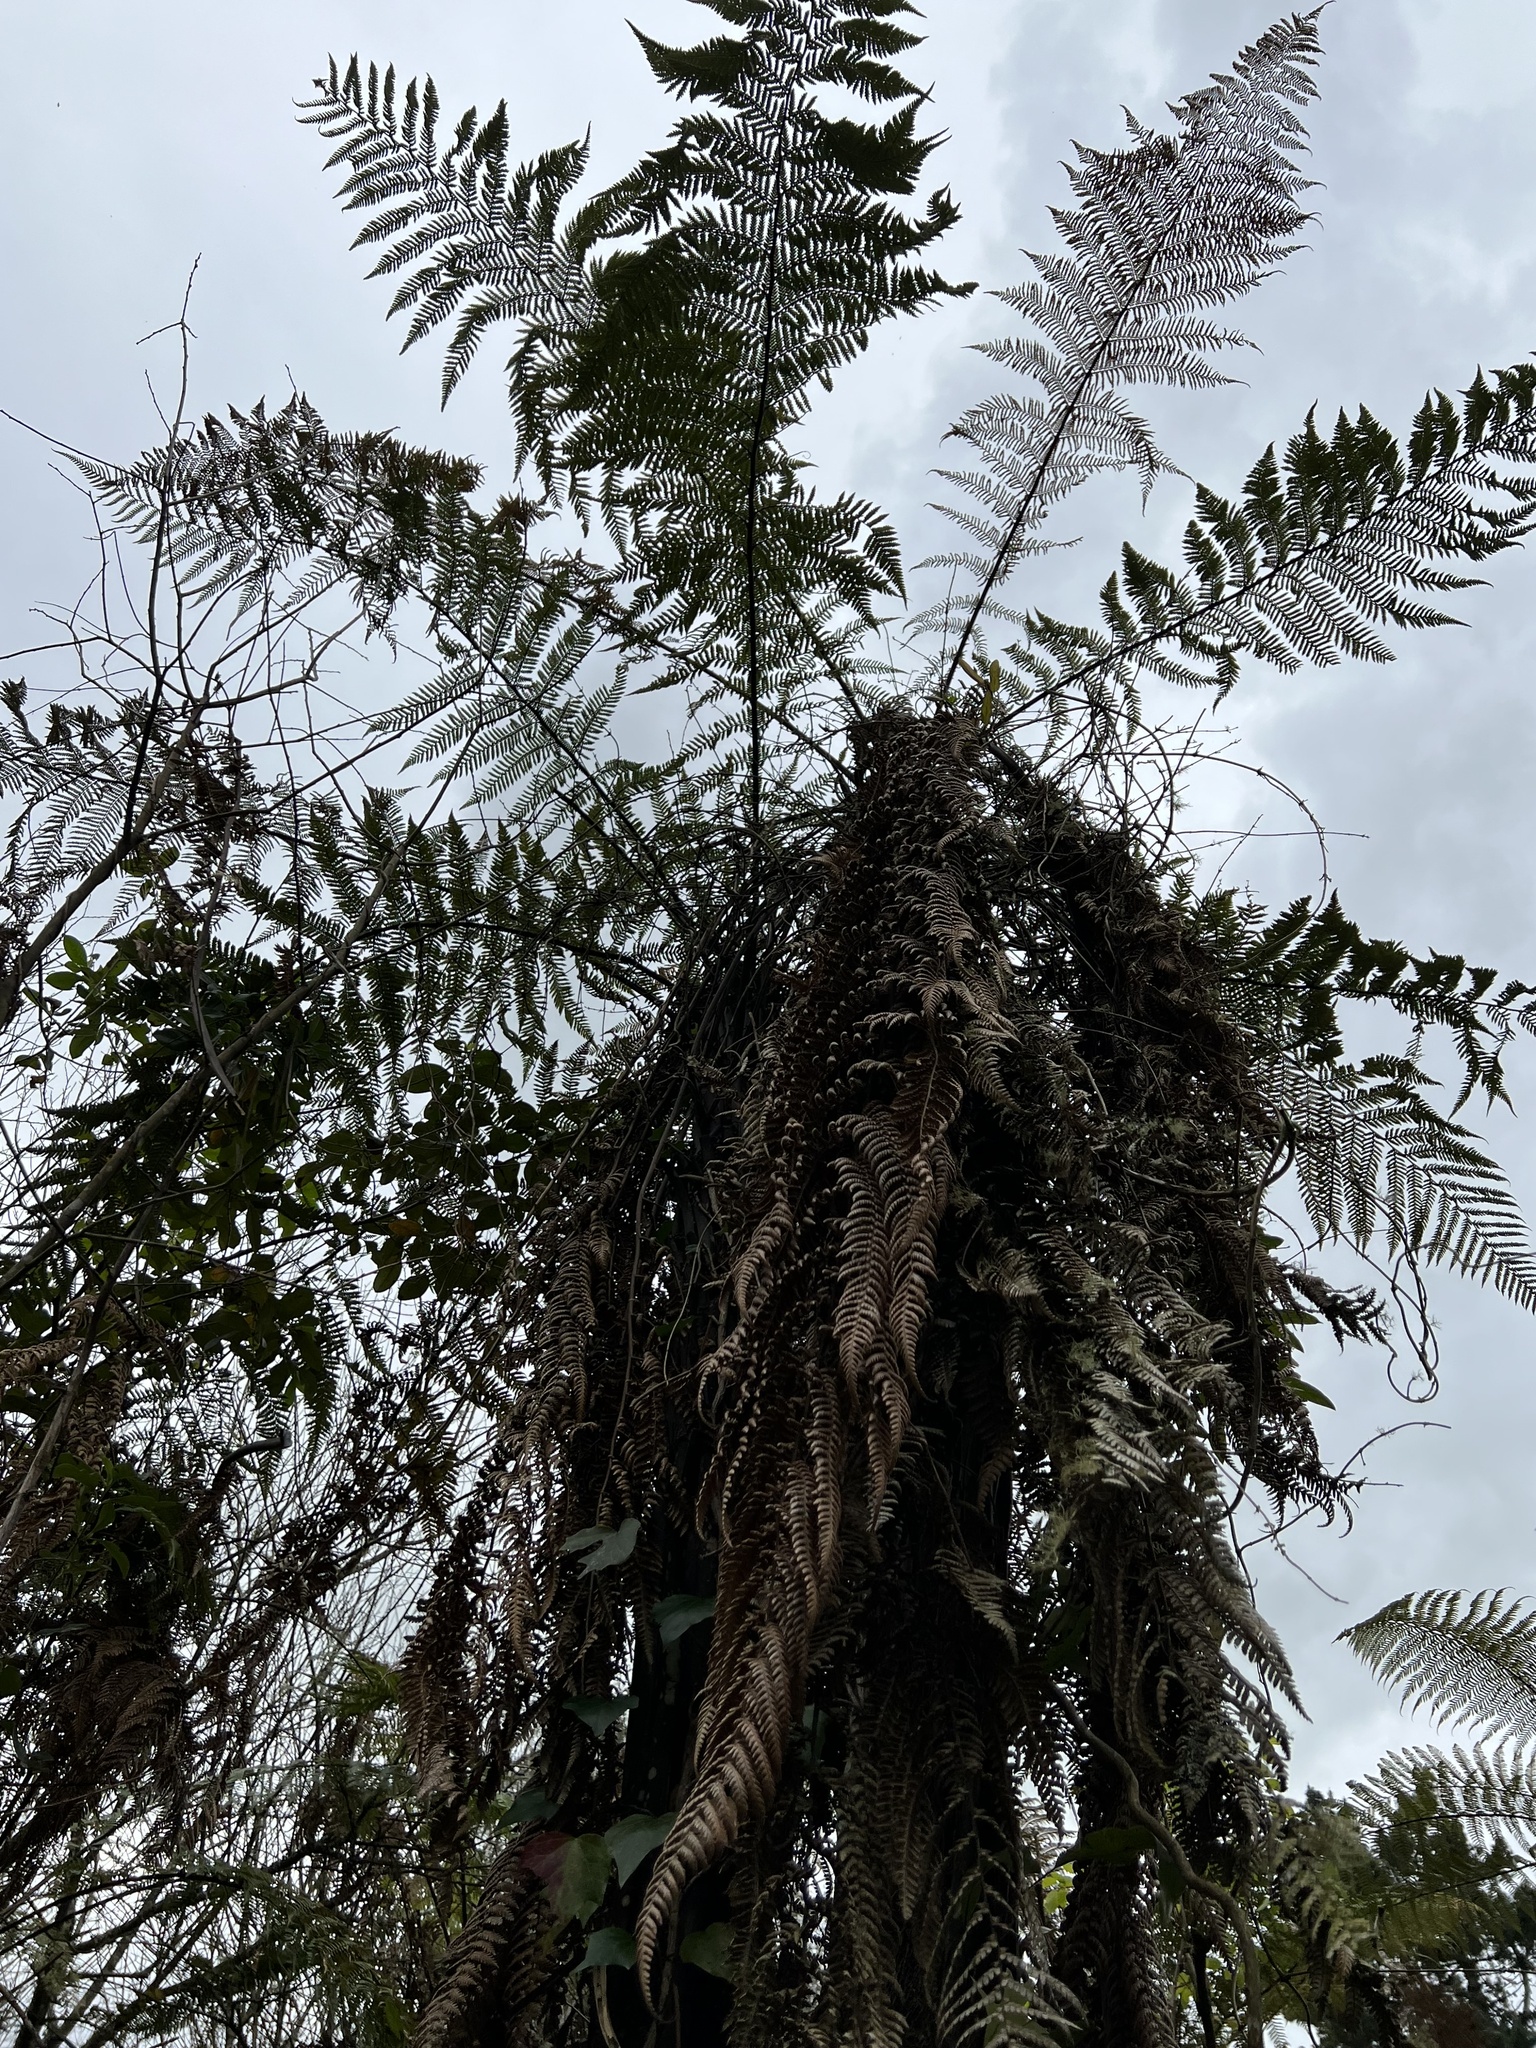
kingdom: Plantae
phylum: Tracheophyta
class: Polypodiopsida
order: Cyatheales
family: Dicksoniaceae
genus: Dicksonia
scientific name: Dicksonia squarrosa
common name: Hard treefern
